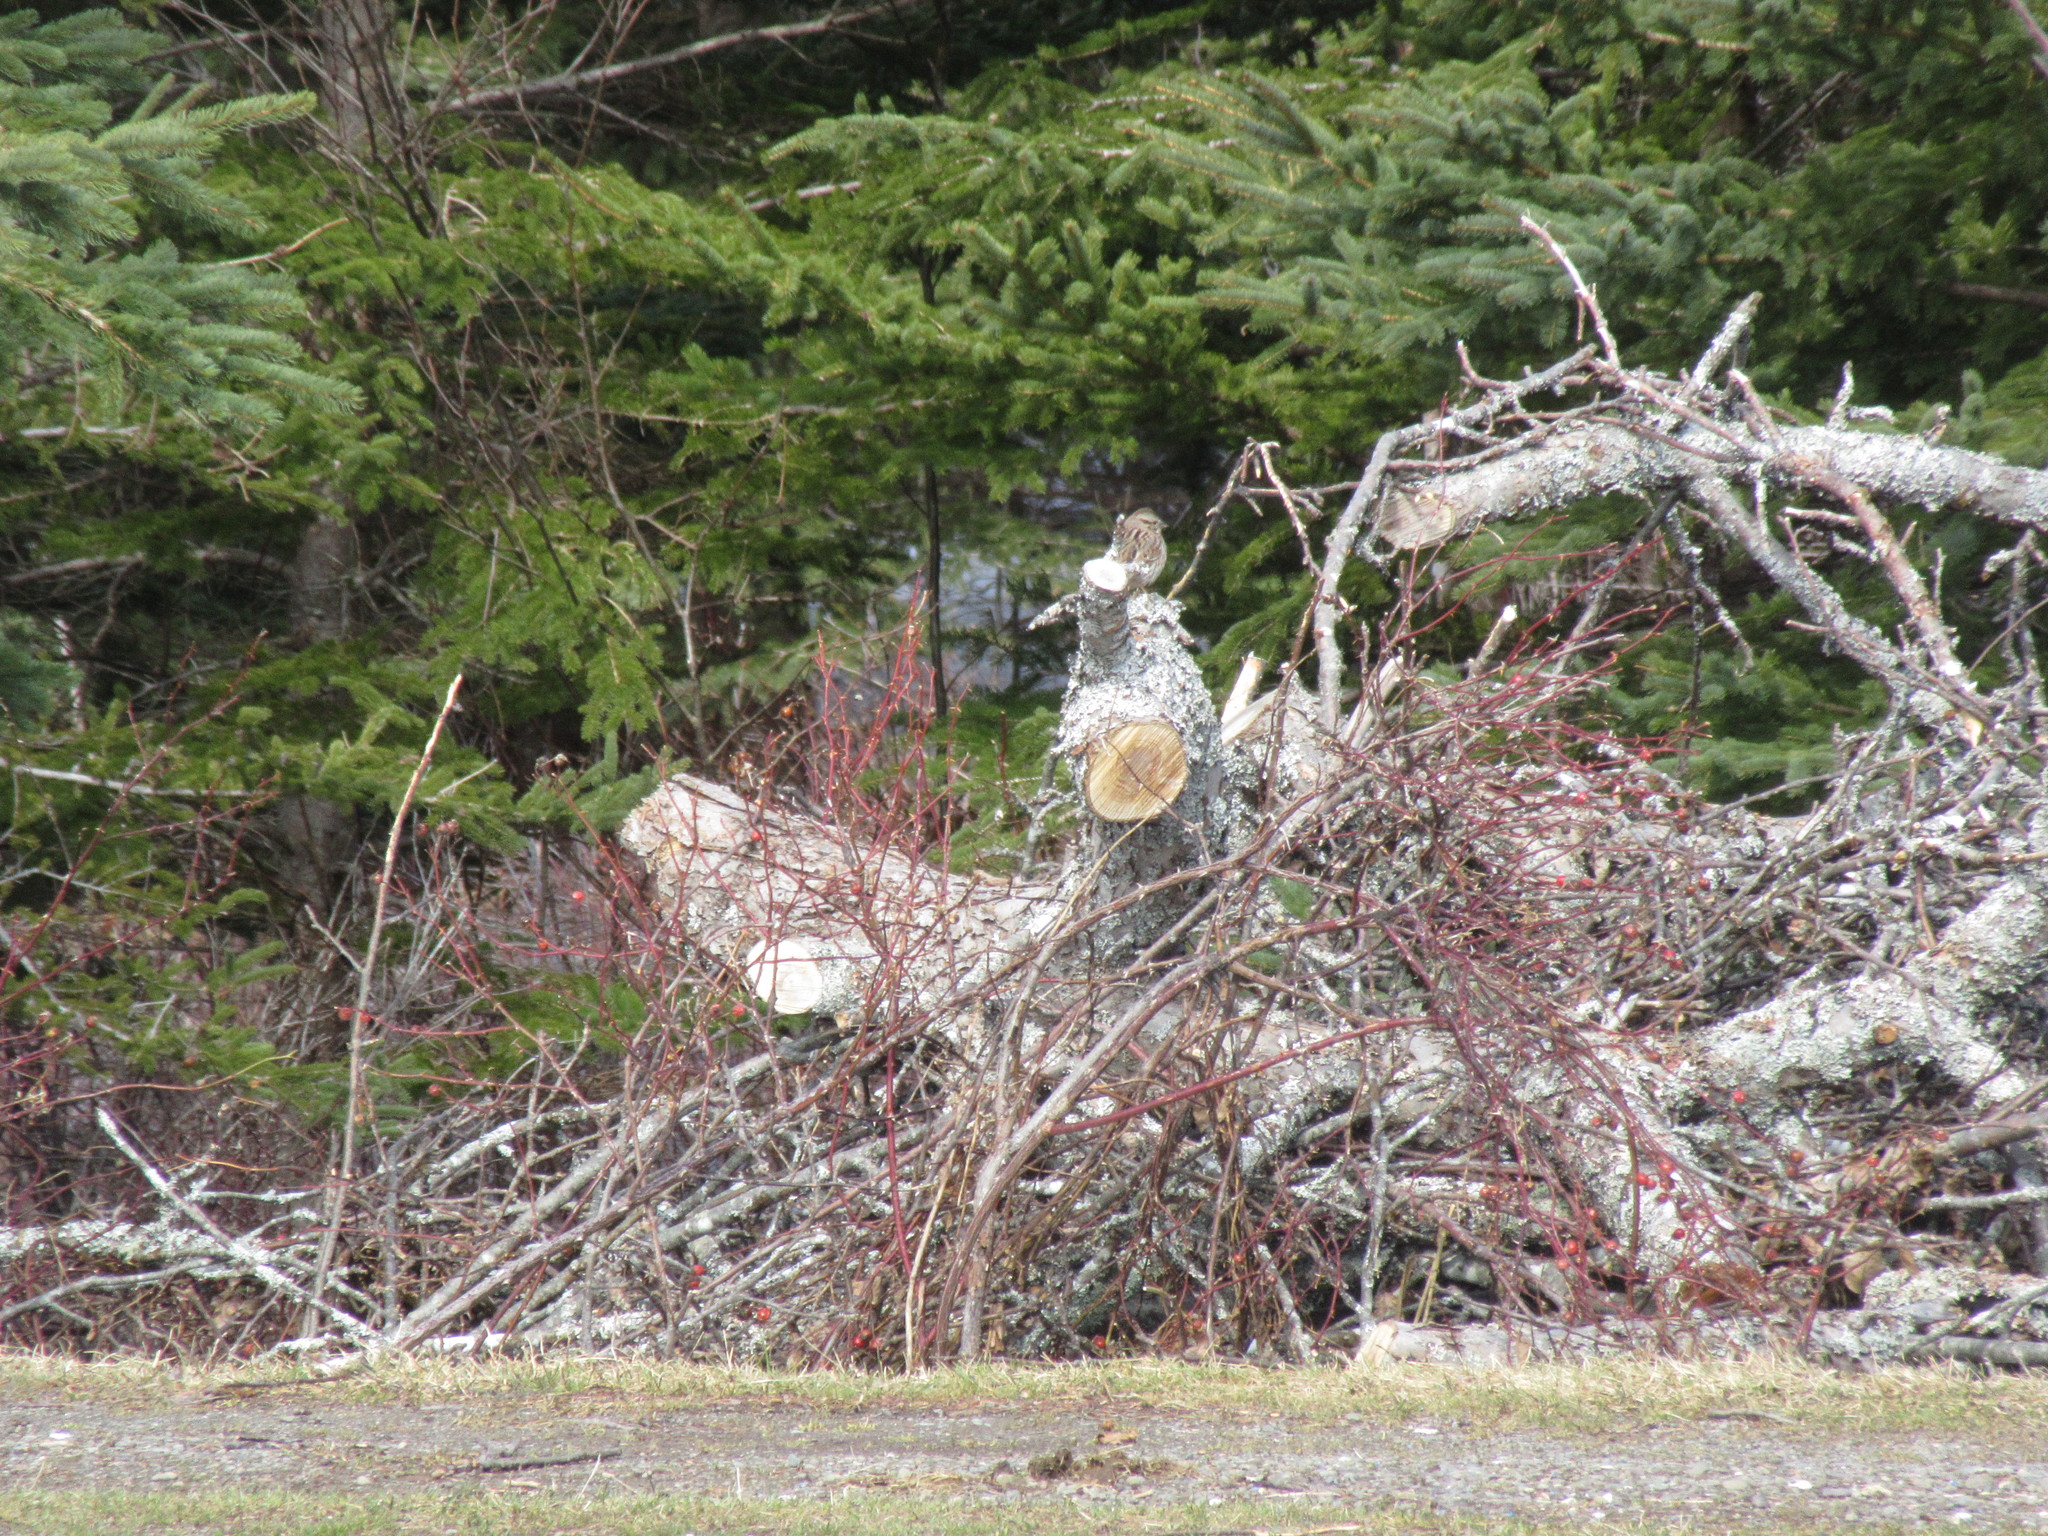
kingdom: Animalia
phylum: Chordata
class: Aves
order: Passeriformes
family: Passerellidae
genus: Melospiza
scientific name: Melospiza melodia
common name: Song sparrow
